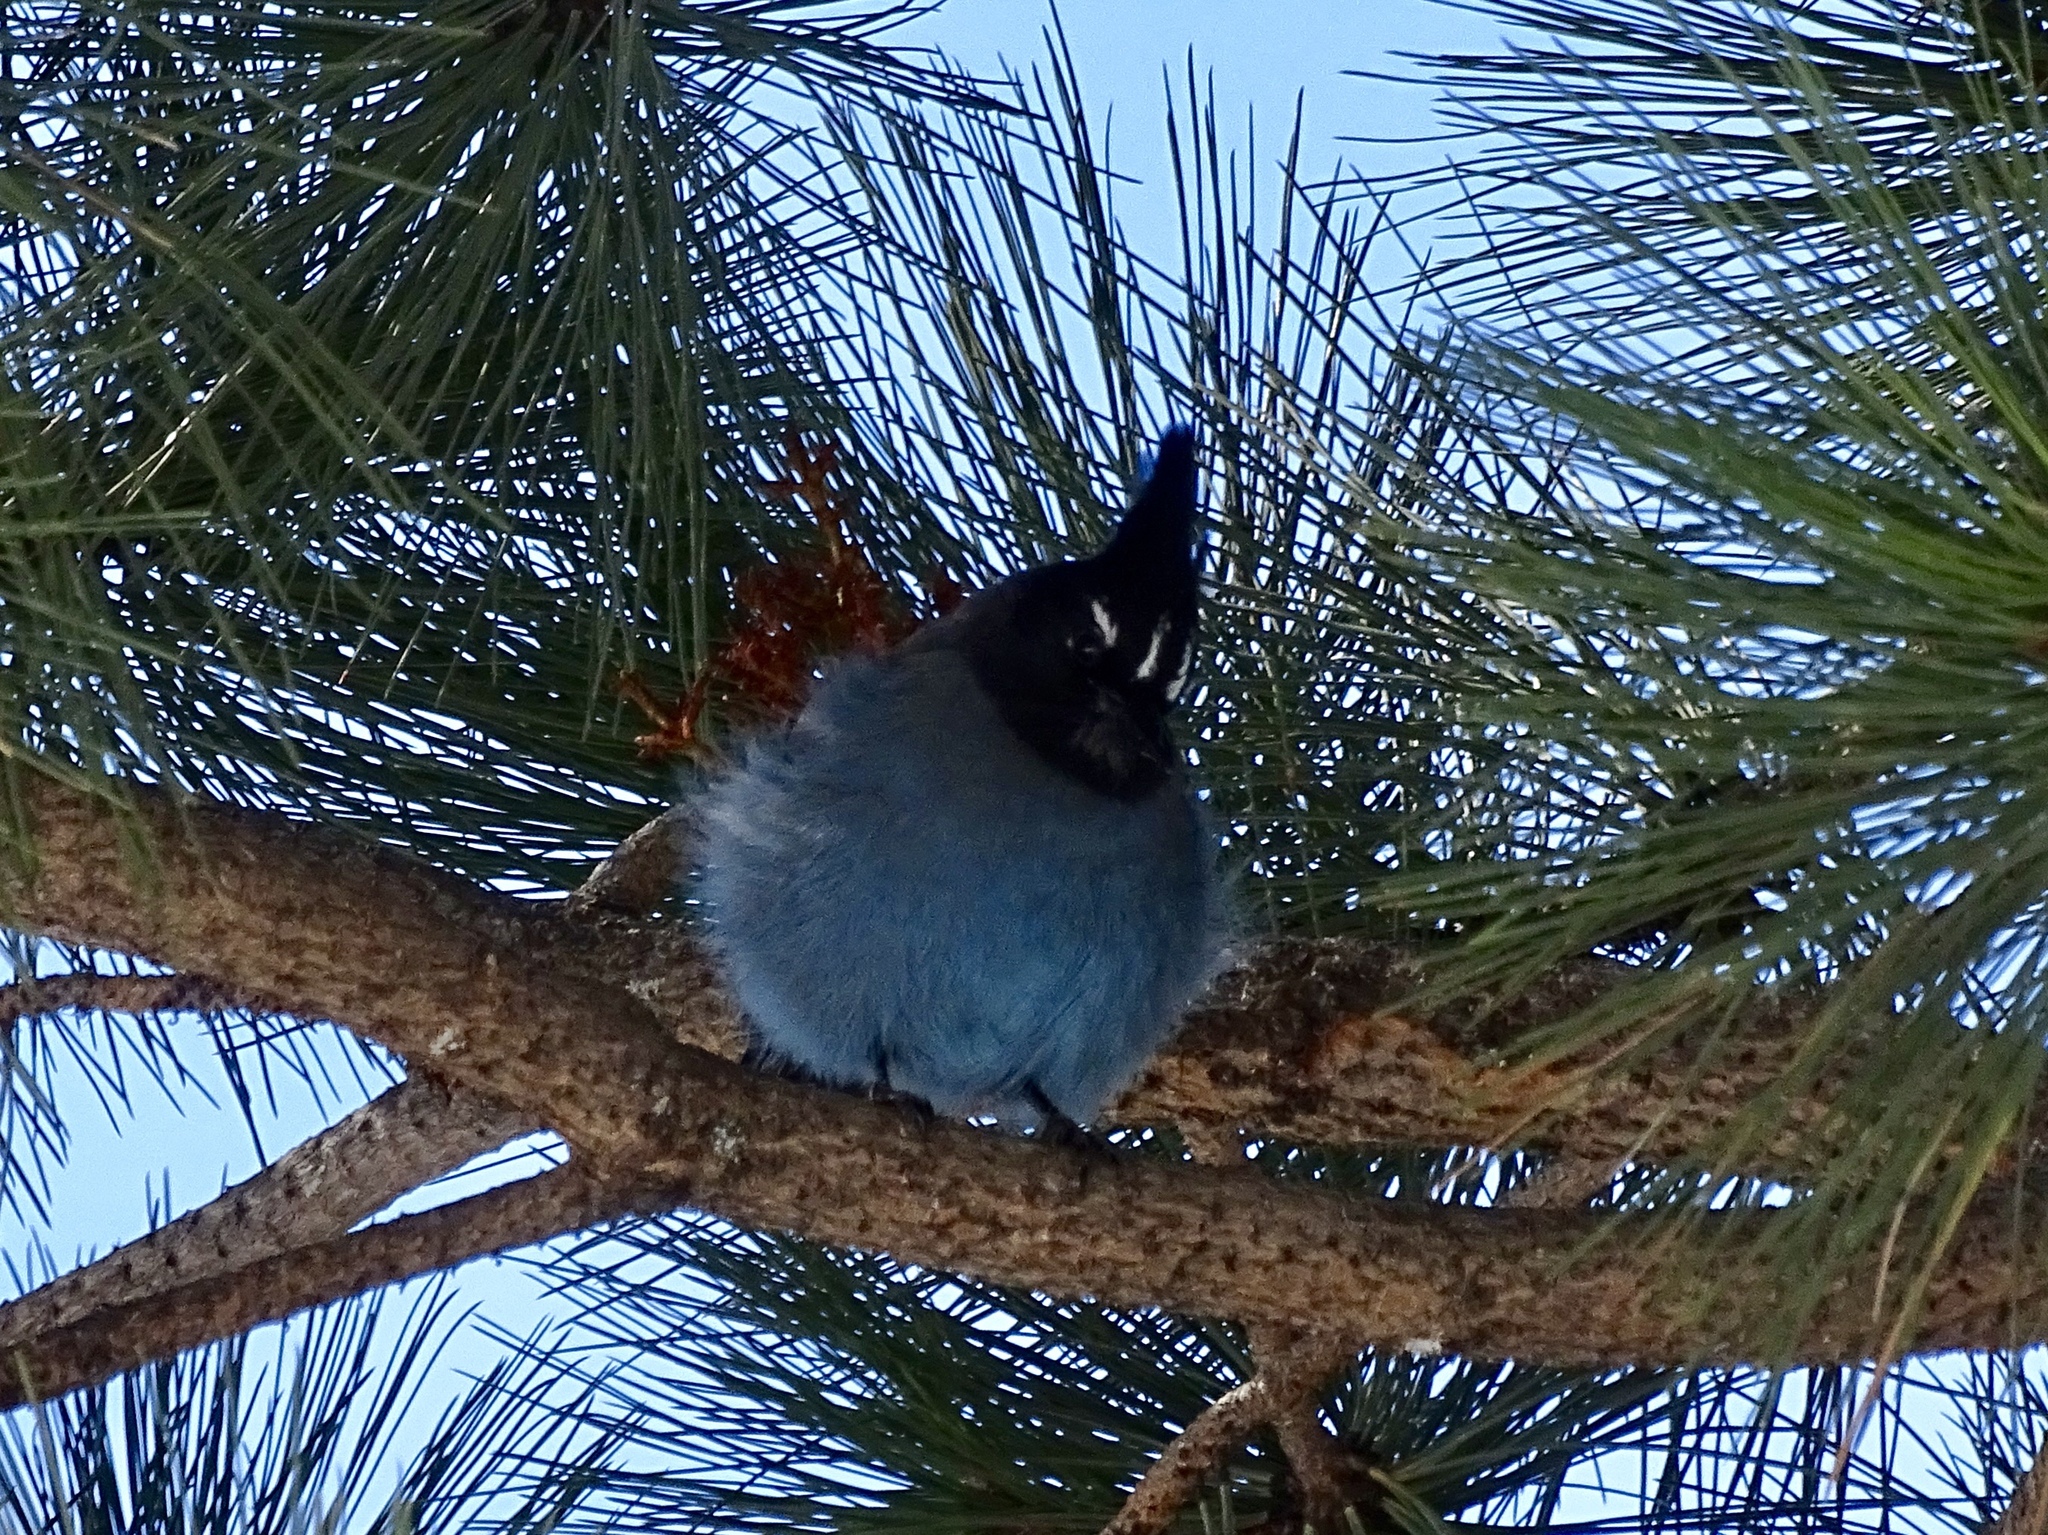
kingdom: Animalia
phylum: Chordata
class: Aves
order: Passeriformes
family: Corvidae
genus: Cyanocitta
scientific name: Cyanocitta stelleri
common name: Steller's jay
